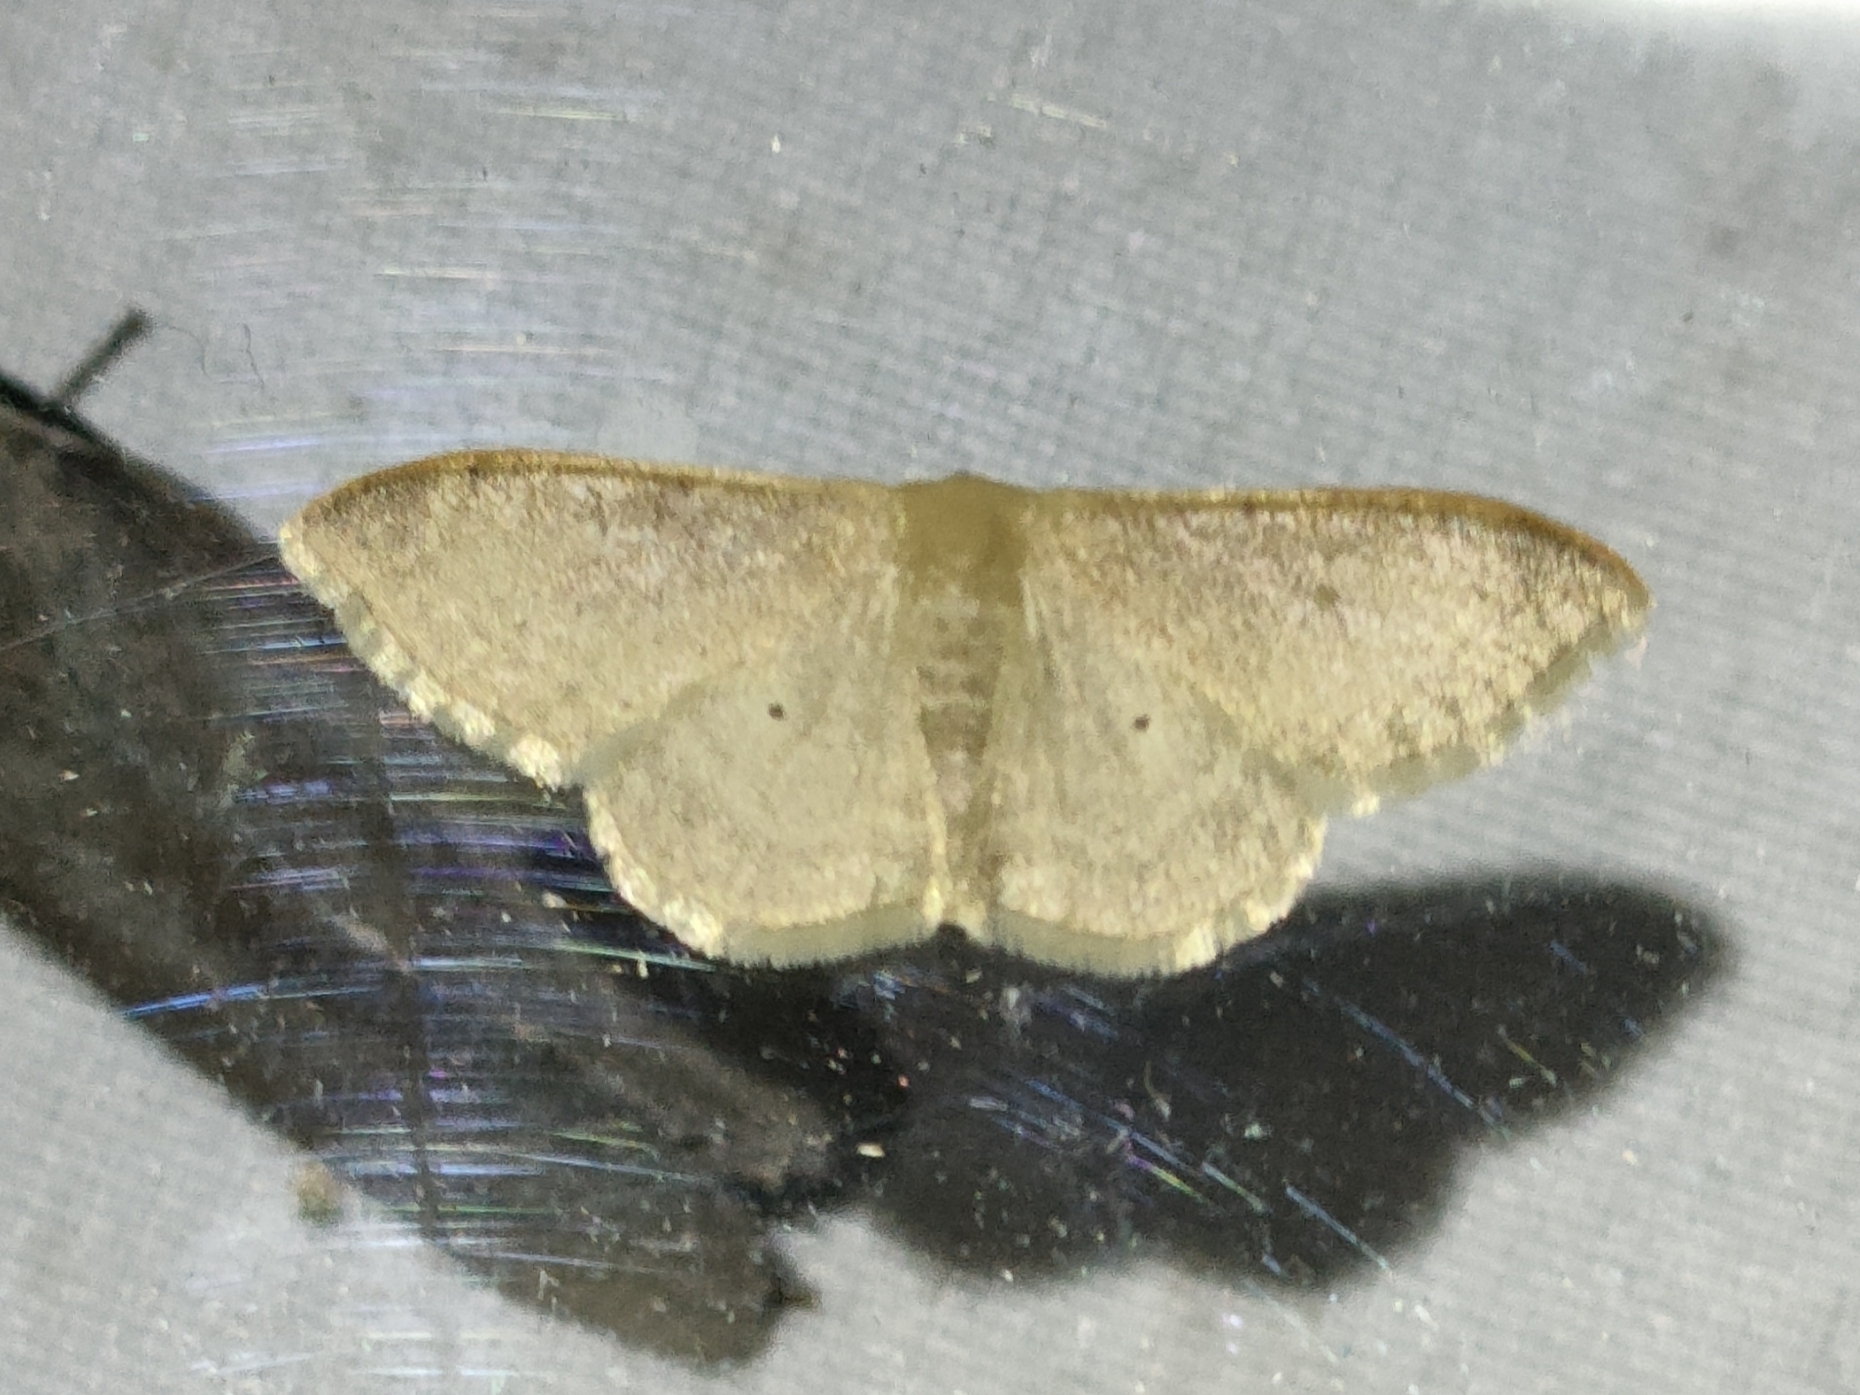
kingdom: Animalia
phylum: Arthropoda
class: Insecta
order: Lepidoptera
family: Geometridae
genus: Idaea
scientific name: Idaea degeneraria
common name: Portland ribbon wave
